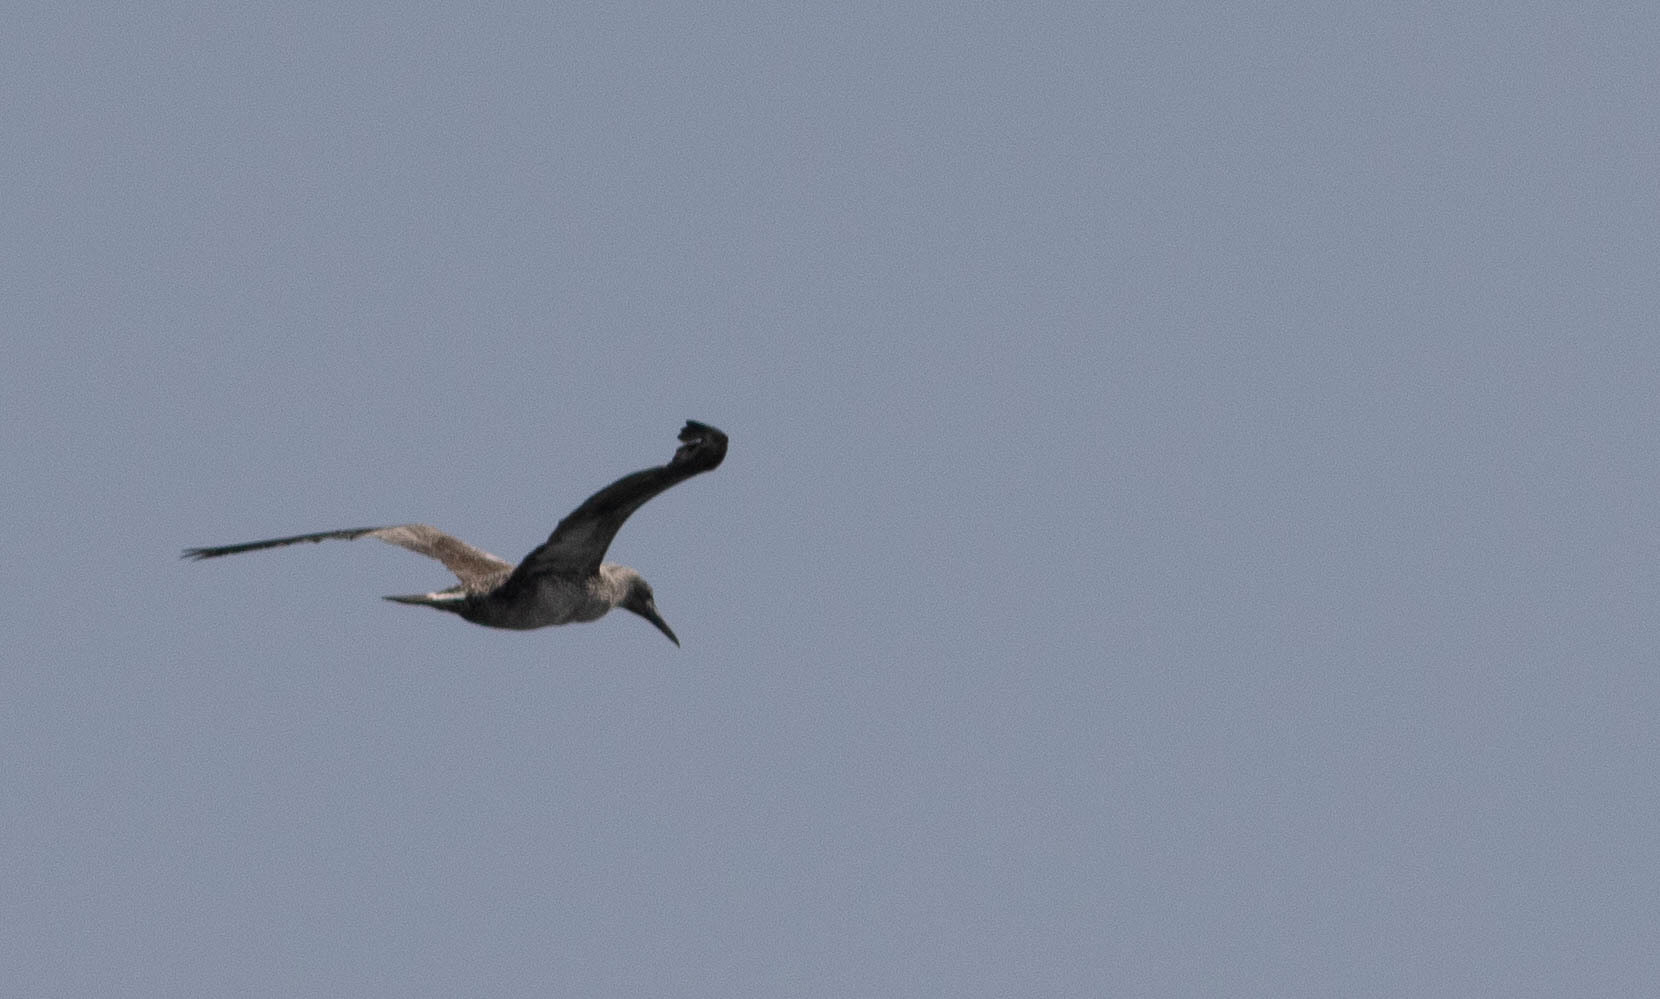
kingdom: Animalia
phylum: Chordata
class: Aves
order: Suliformes
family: Sulidae
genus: Morus
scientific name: Morus bassanus
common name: Northern gannet
